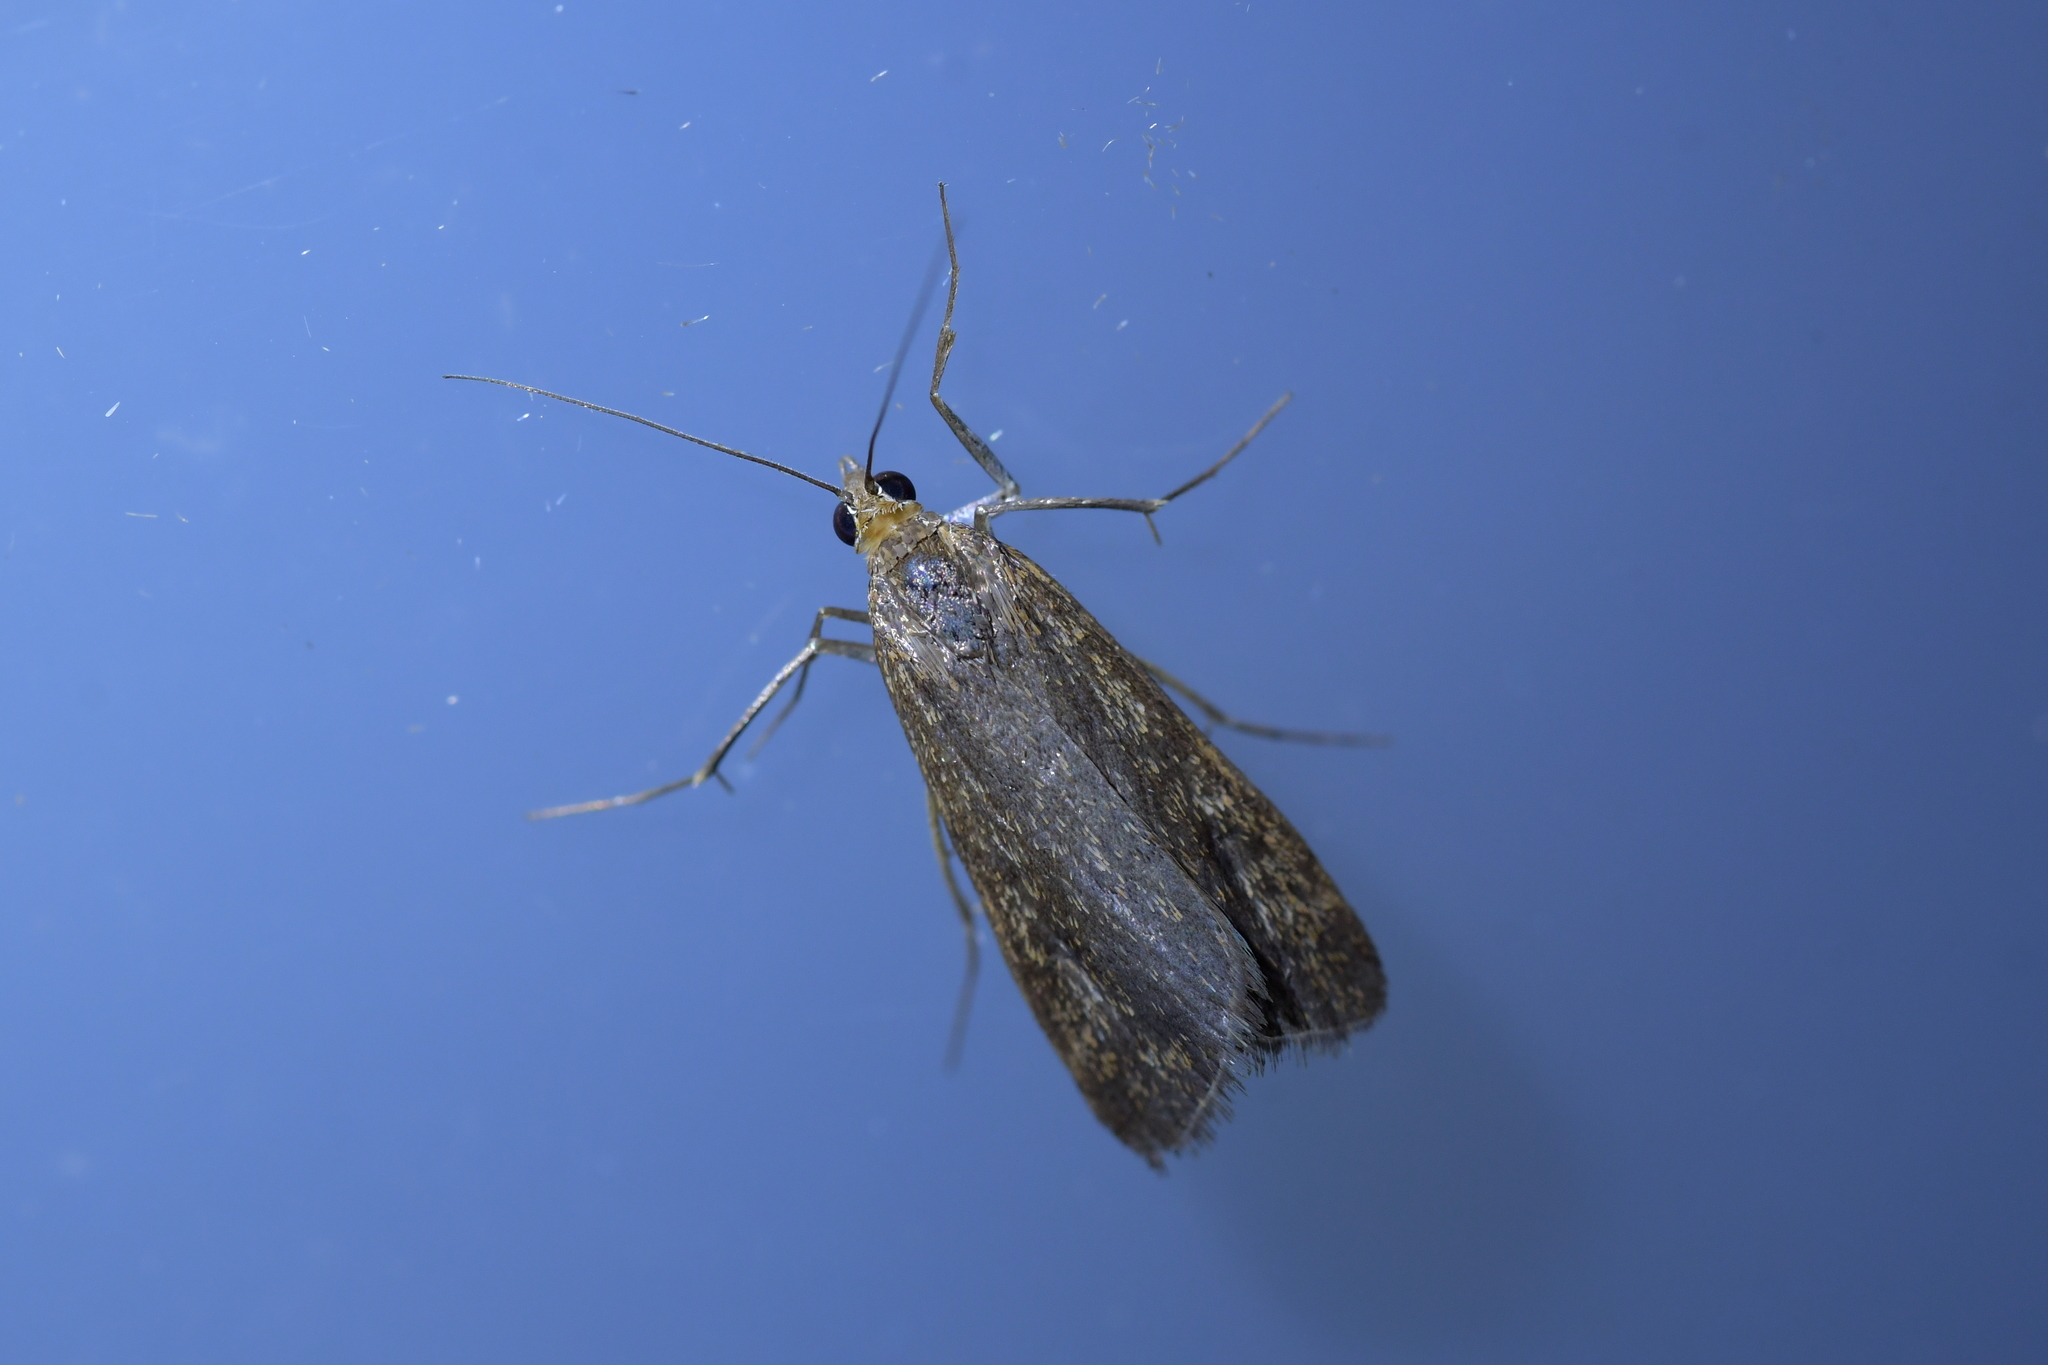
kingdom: Animalia
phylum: Arthropoda
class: Insecta
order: Lepidoptera
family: Crambidae
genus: Achyra
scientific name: Achyra affinitalis
